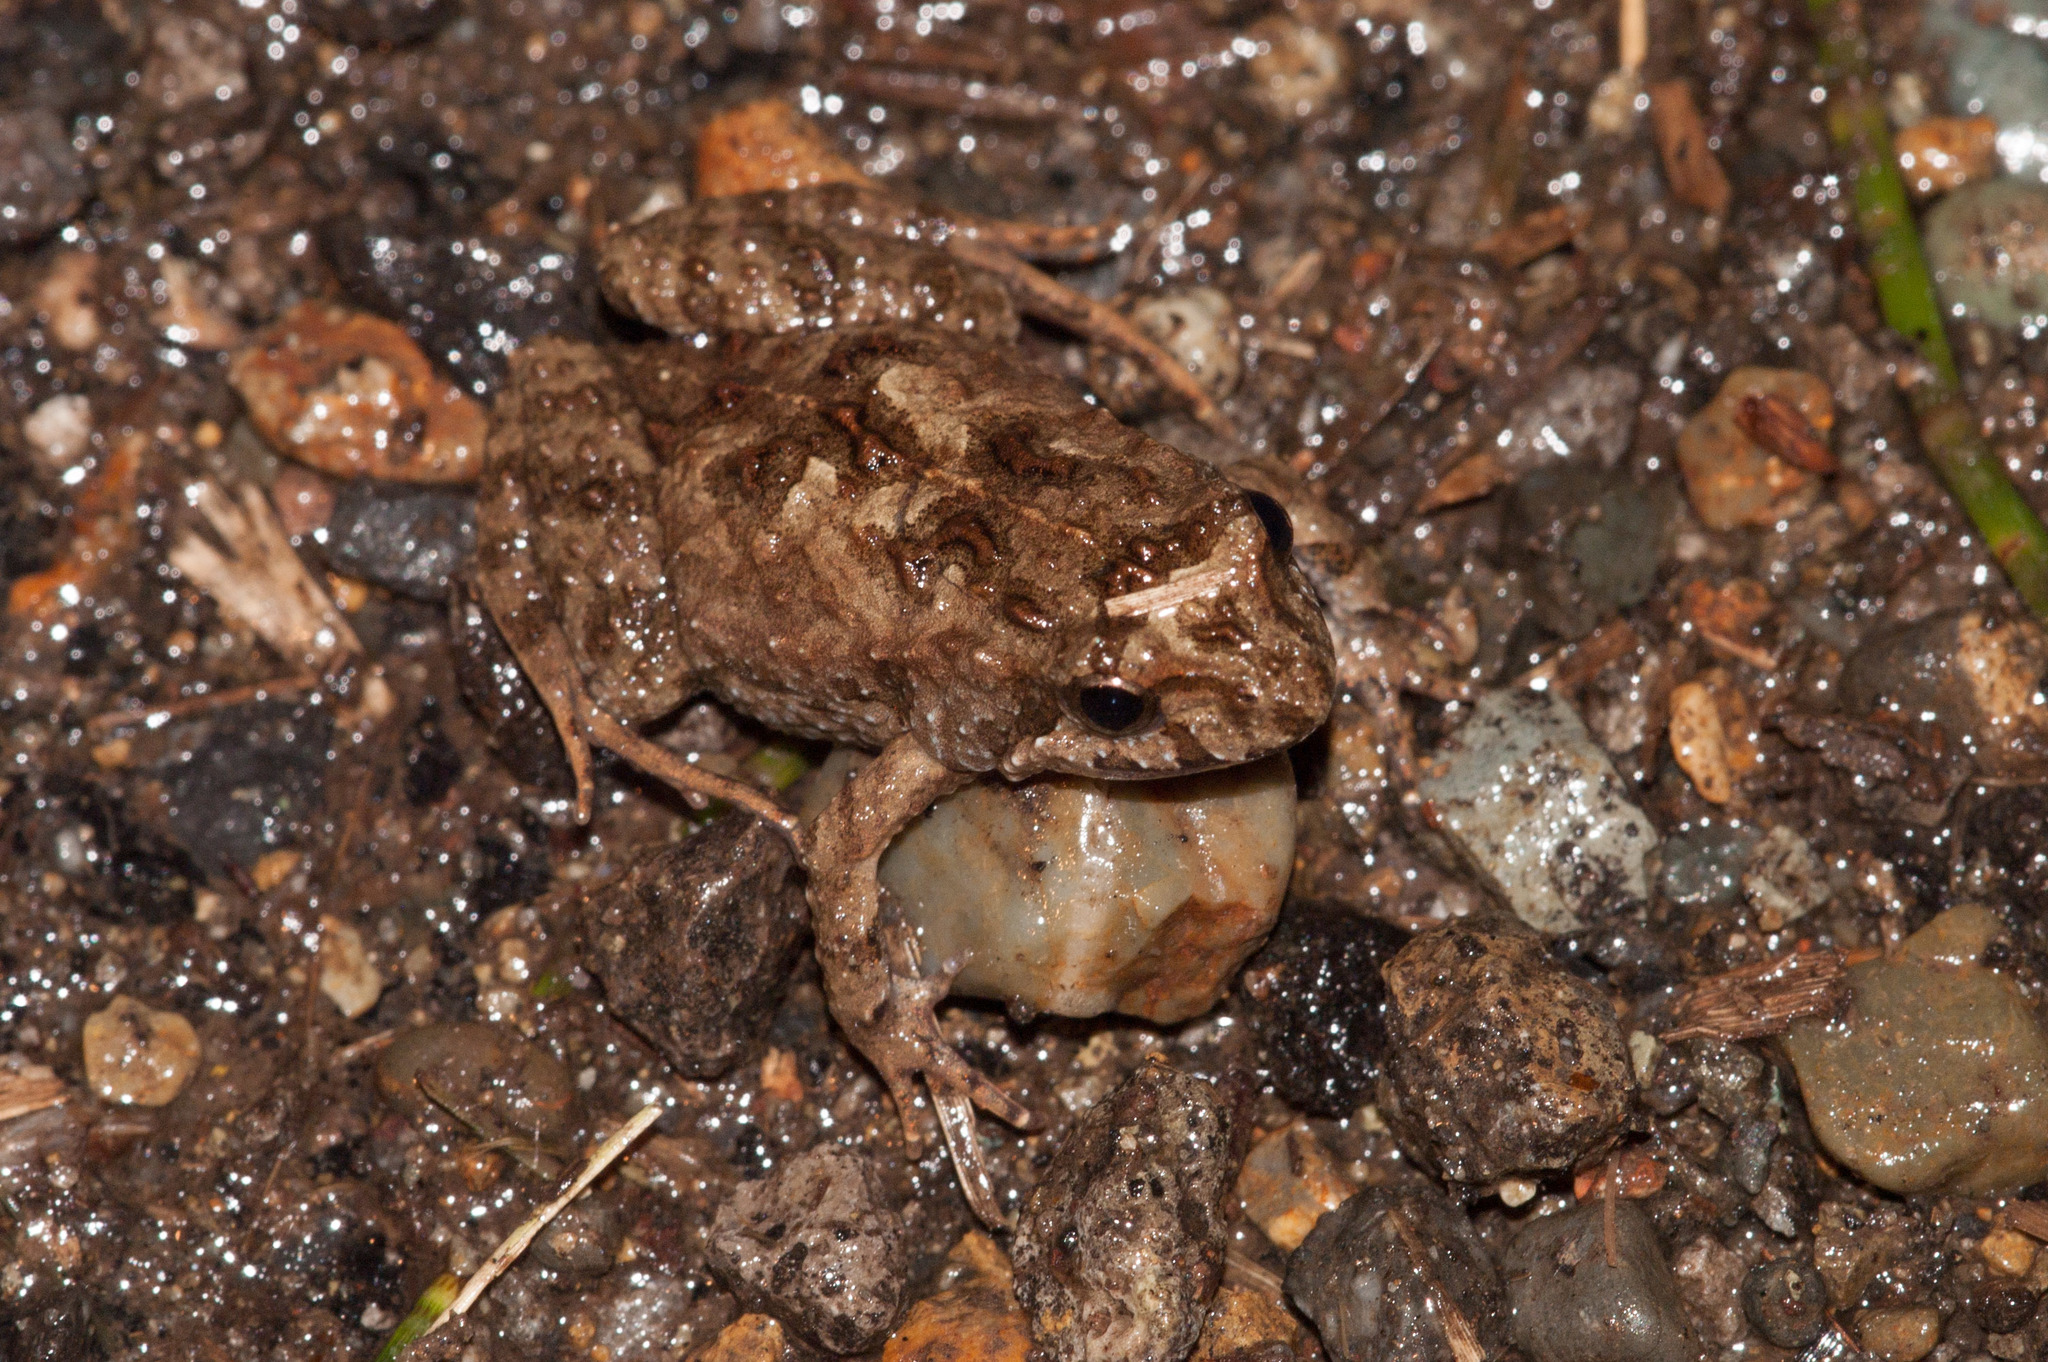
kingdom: Animalia
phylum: Chordata
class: Amphibia
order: Anura
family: Myobatrachidae
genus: Crinia
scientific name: Crinia signifera
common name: Brown froglet
